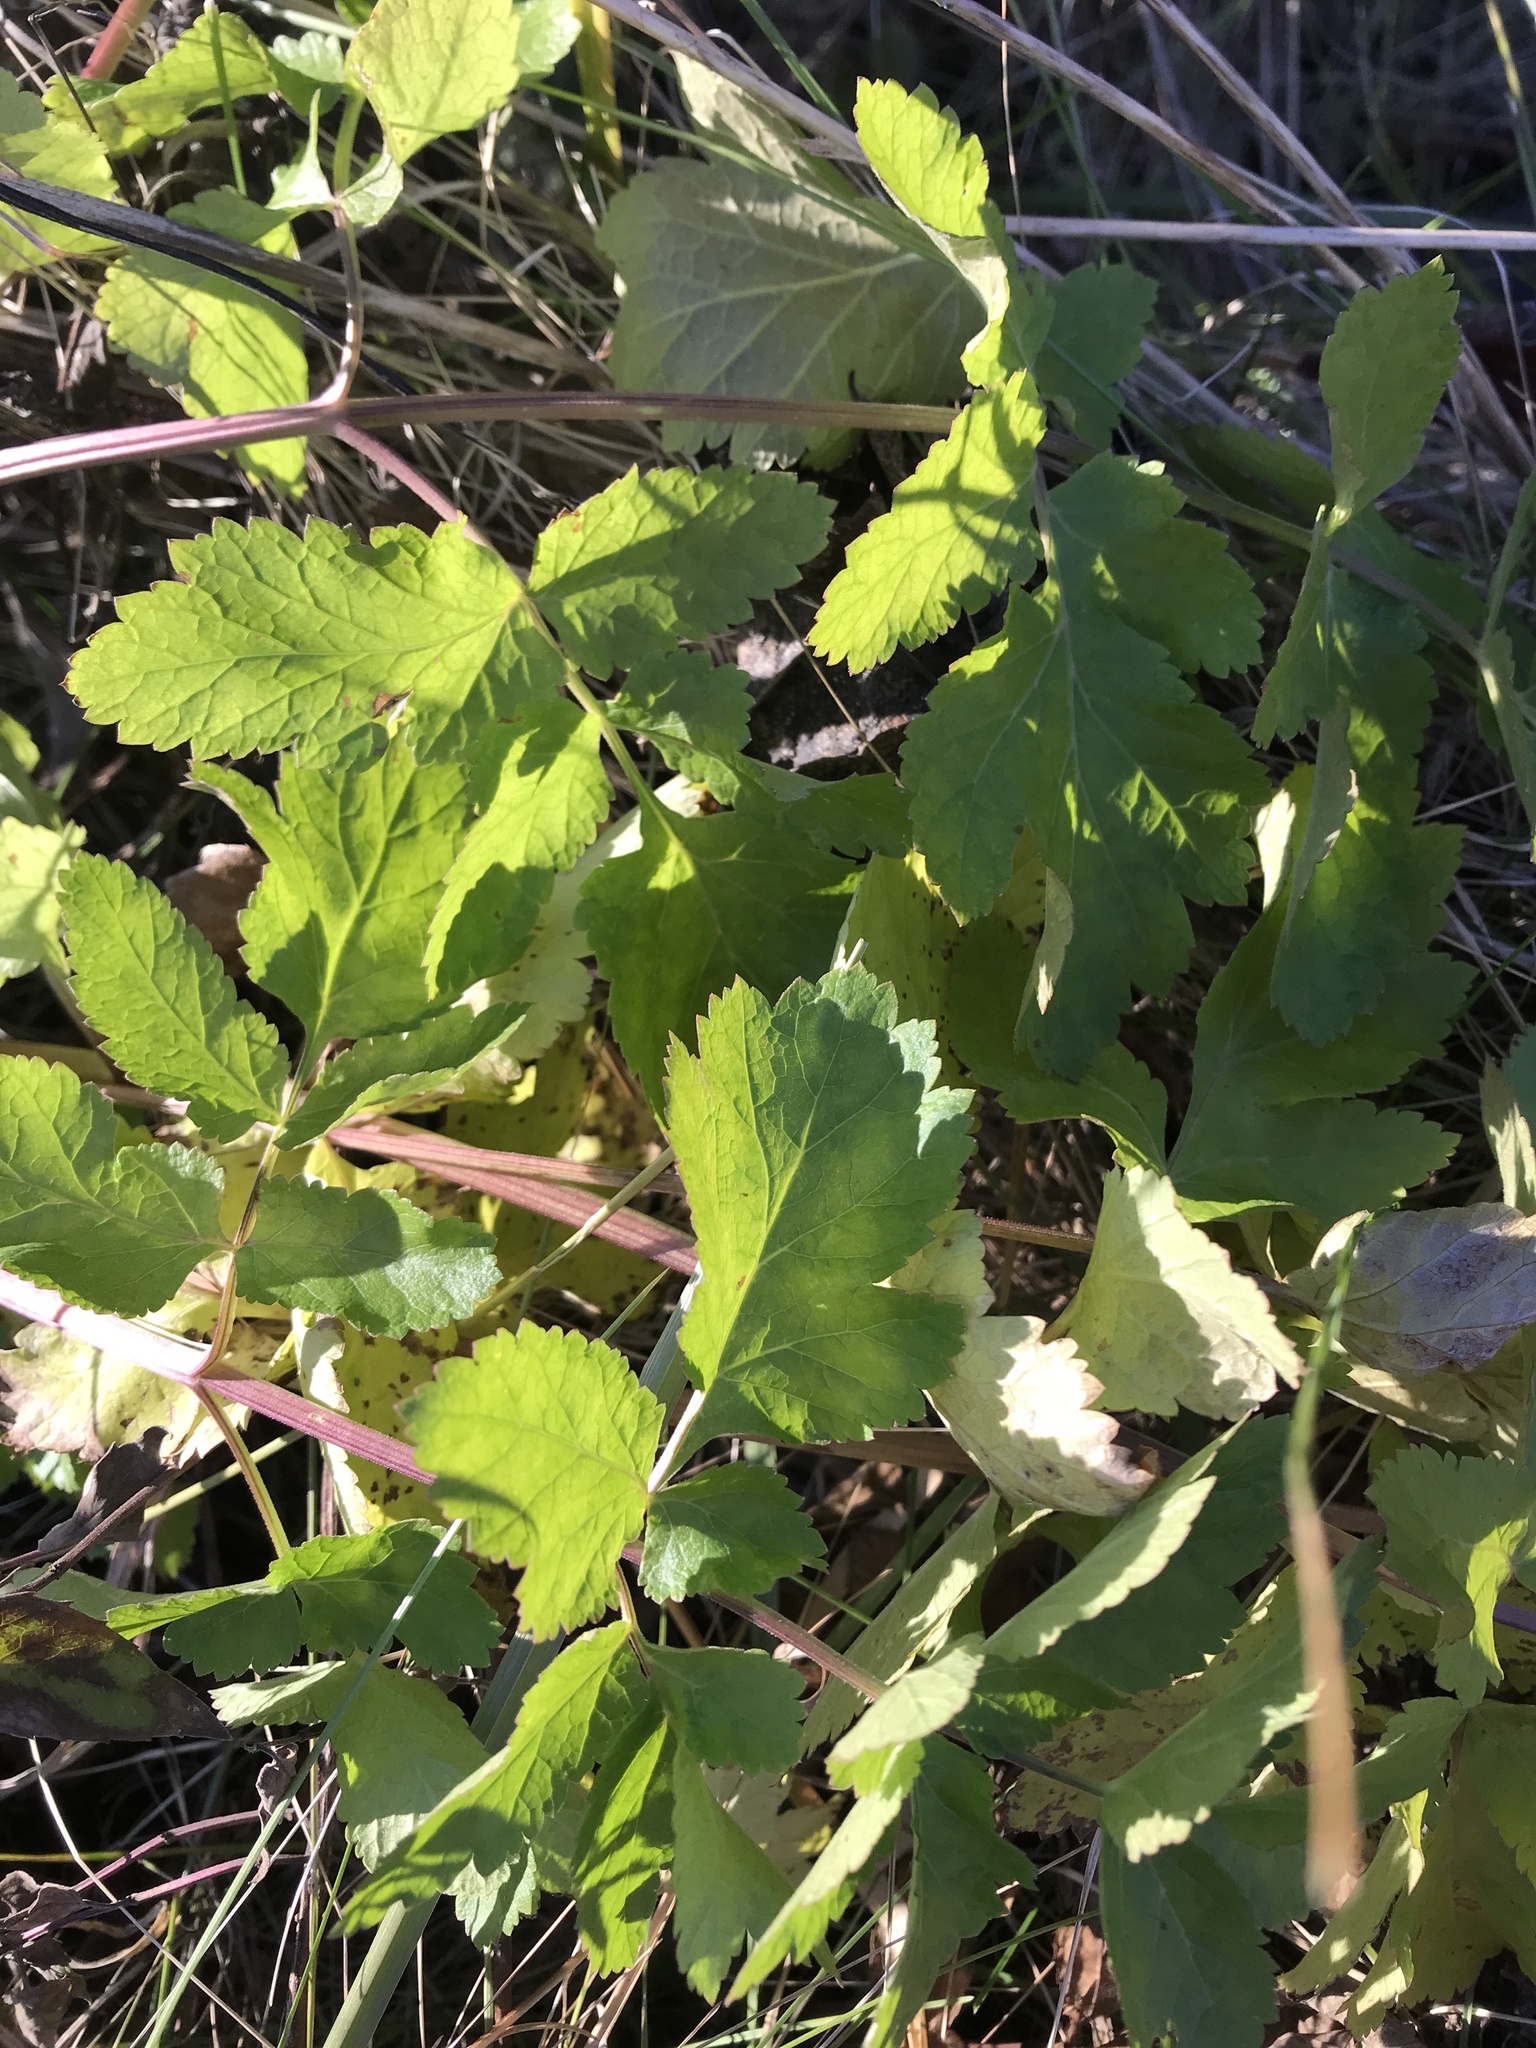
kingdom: Plantae
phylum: Tracheophyta
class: Magnoliopsida
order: Apiales
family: Apiaceae
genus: Pastinaca
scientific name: Pastinaca sativa
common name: Wild parsnip
